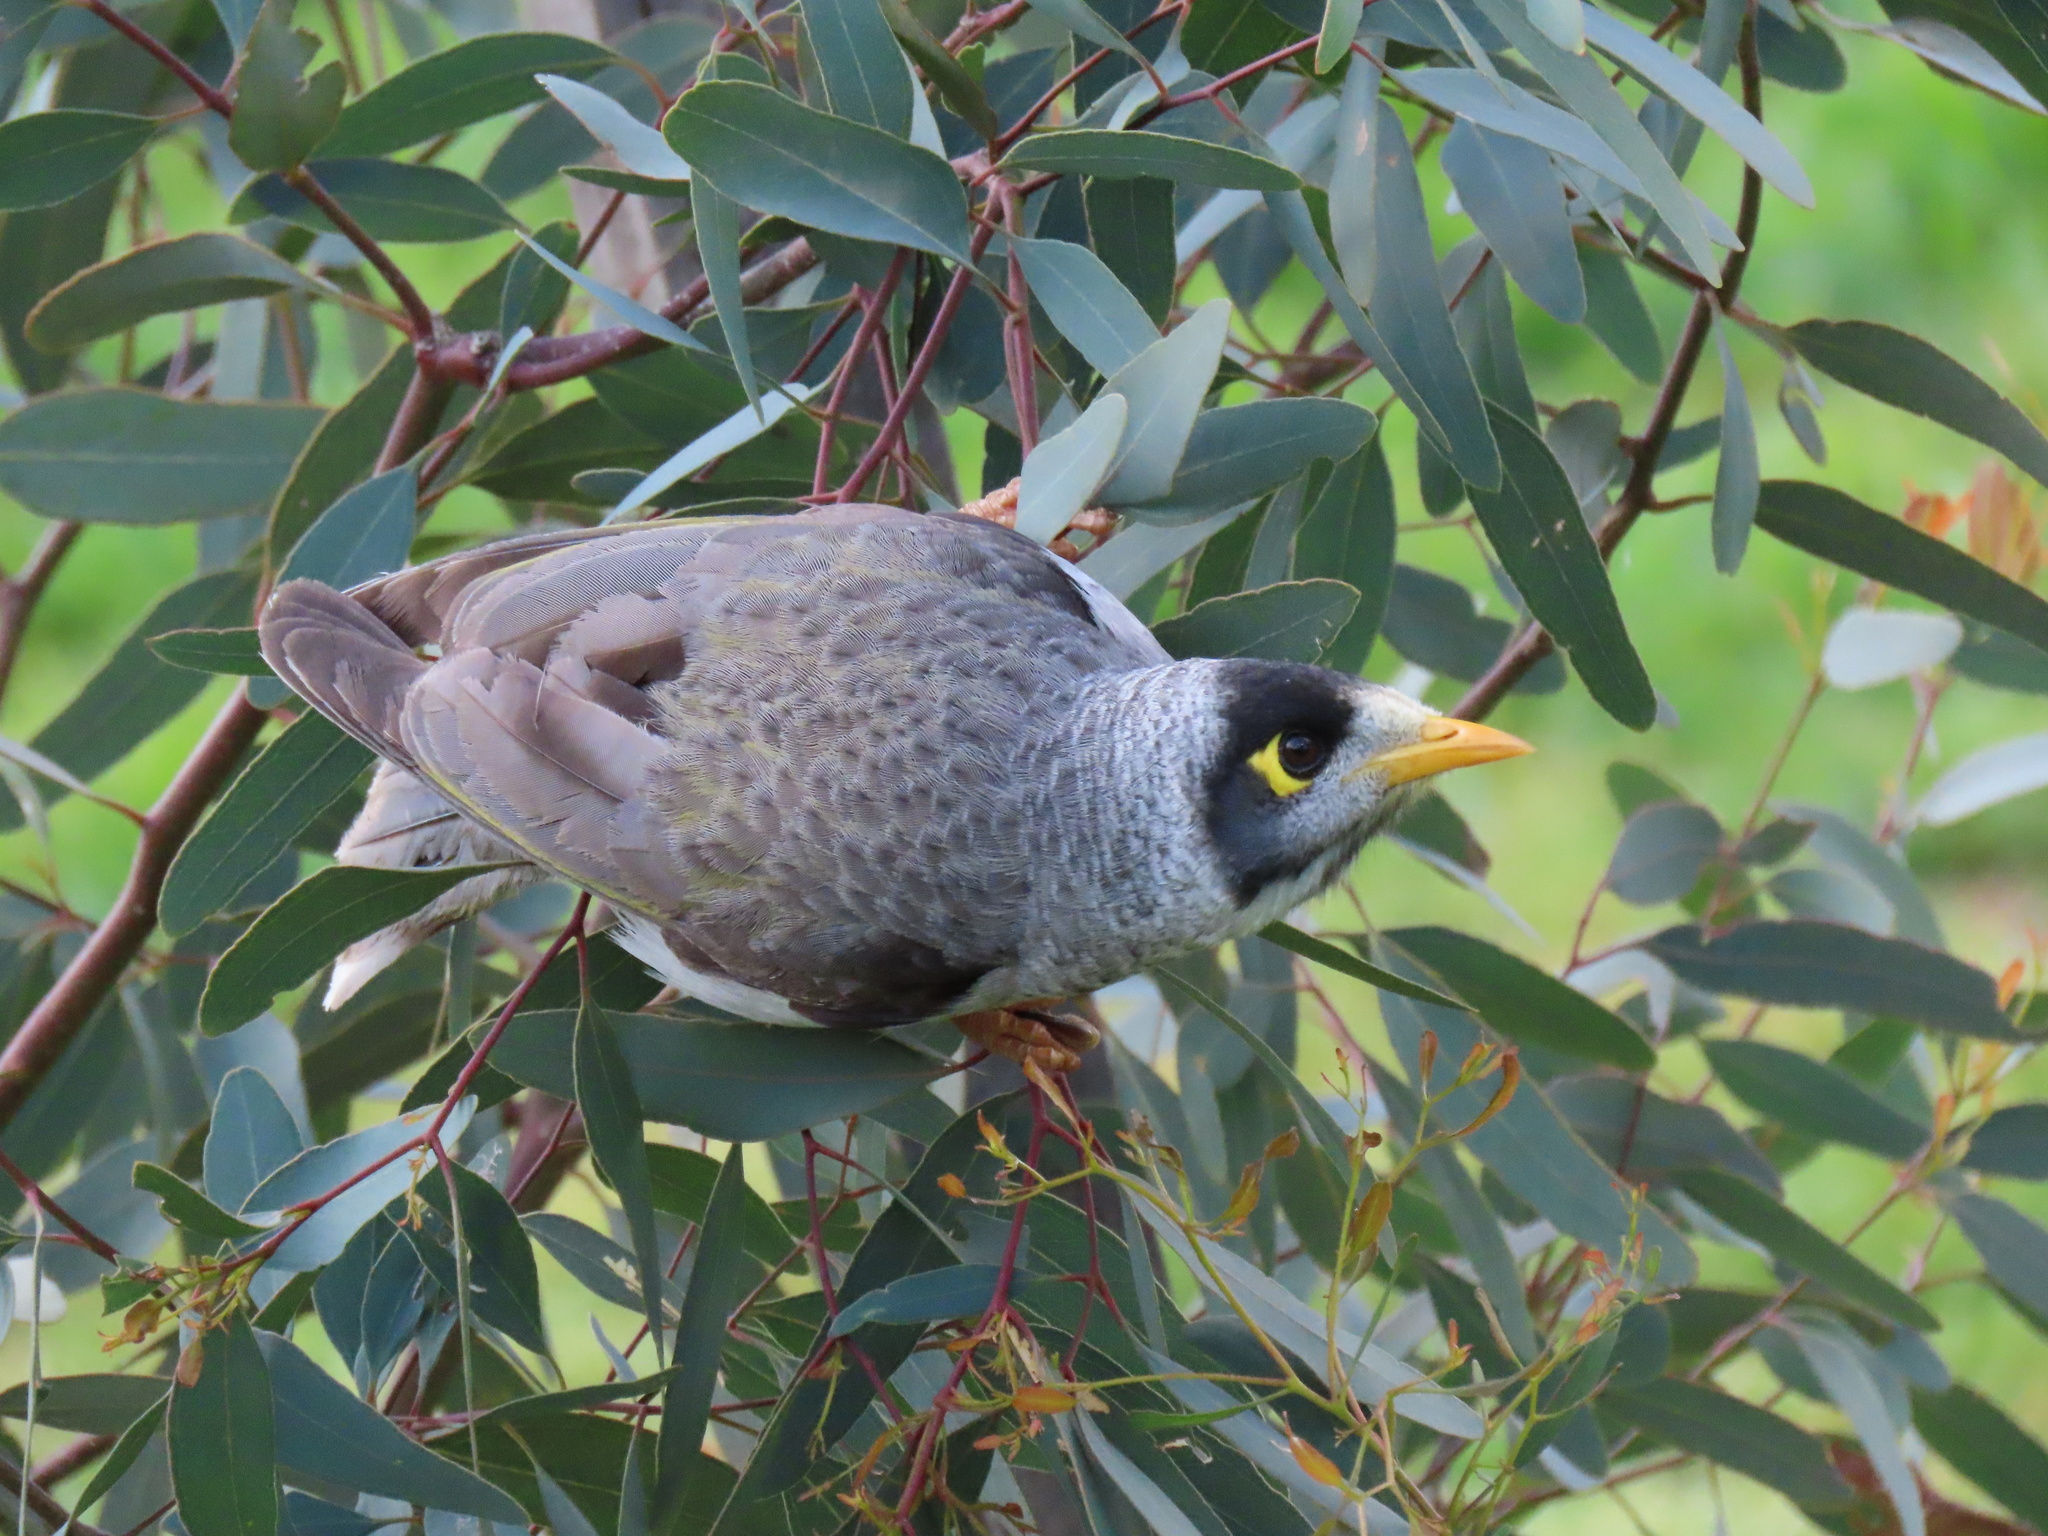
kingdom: Animalia
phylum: Chordata
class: Aves
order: Passeriformes
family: Meliphagidae
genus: Manorina
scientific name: Manorina melanocephala
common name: Noisy miner
